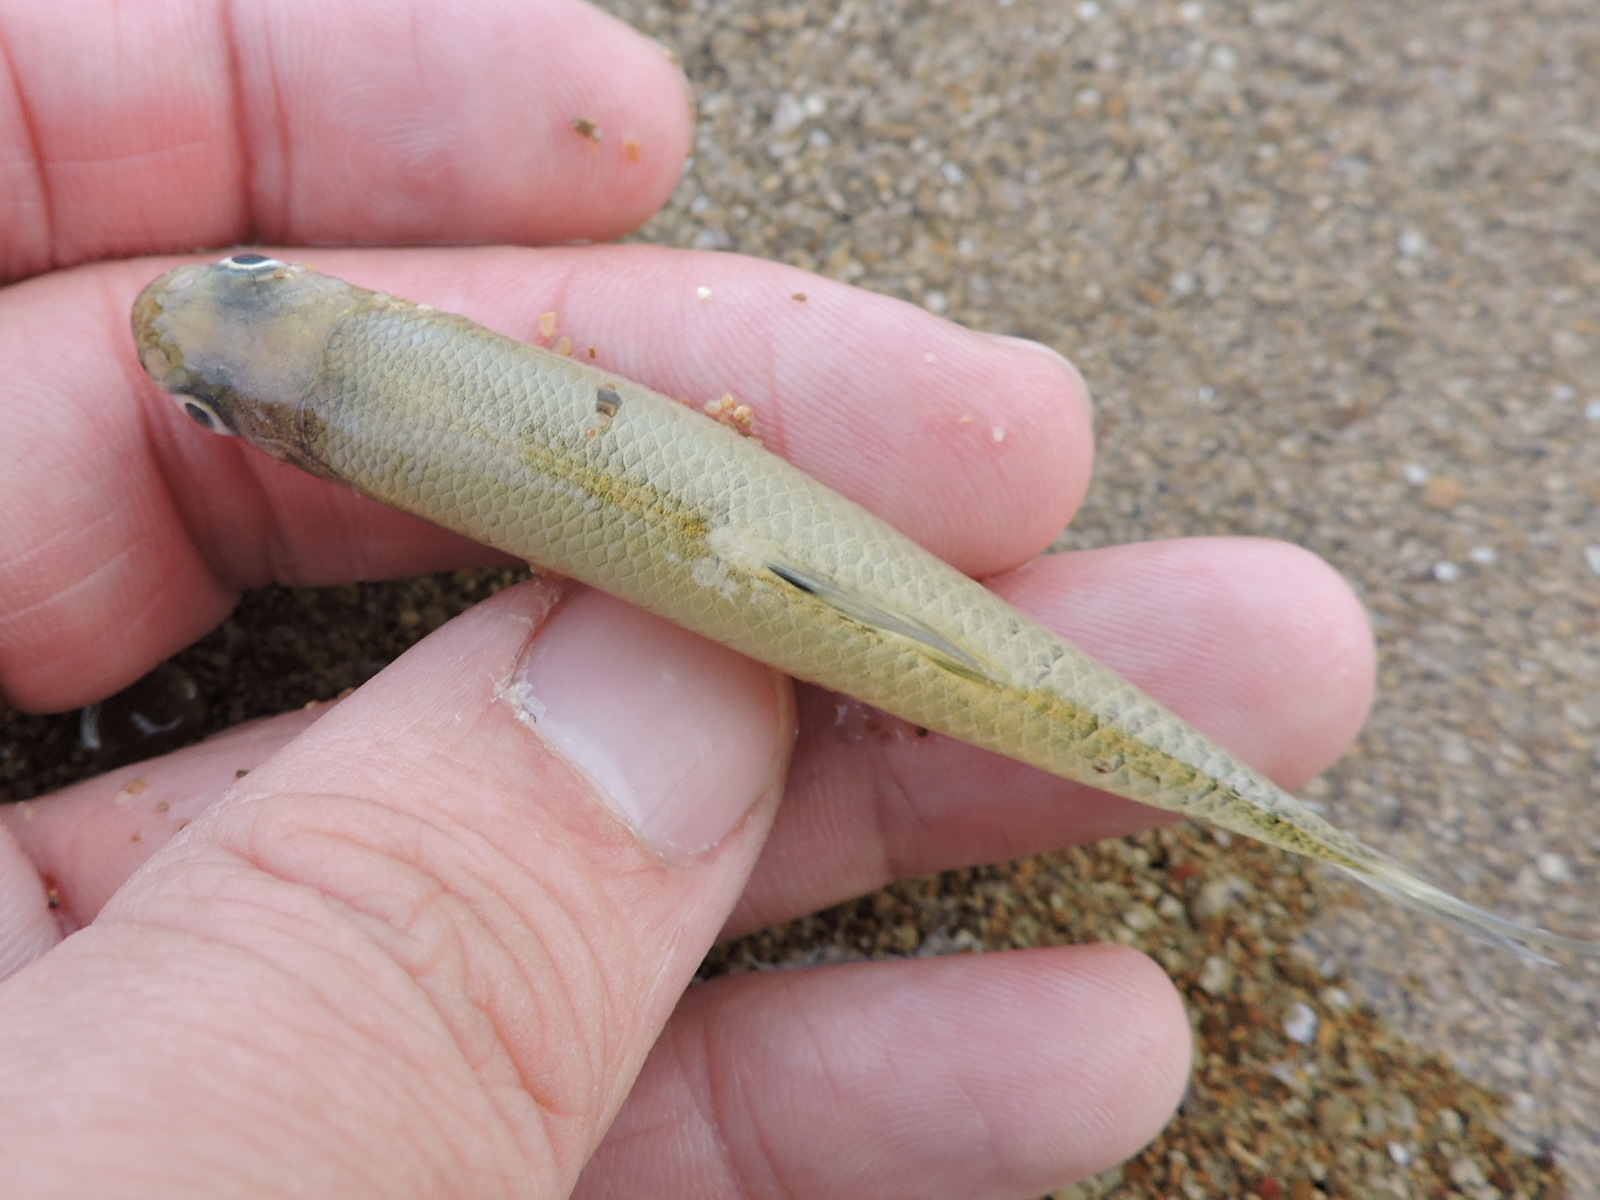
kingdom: Animalia
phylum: Chordata
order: Cypriniformes
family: Cyprinidae
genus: Pimephales
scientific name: Pimephales vigilax
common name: Bullhead minnow
